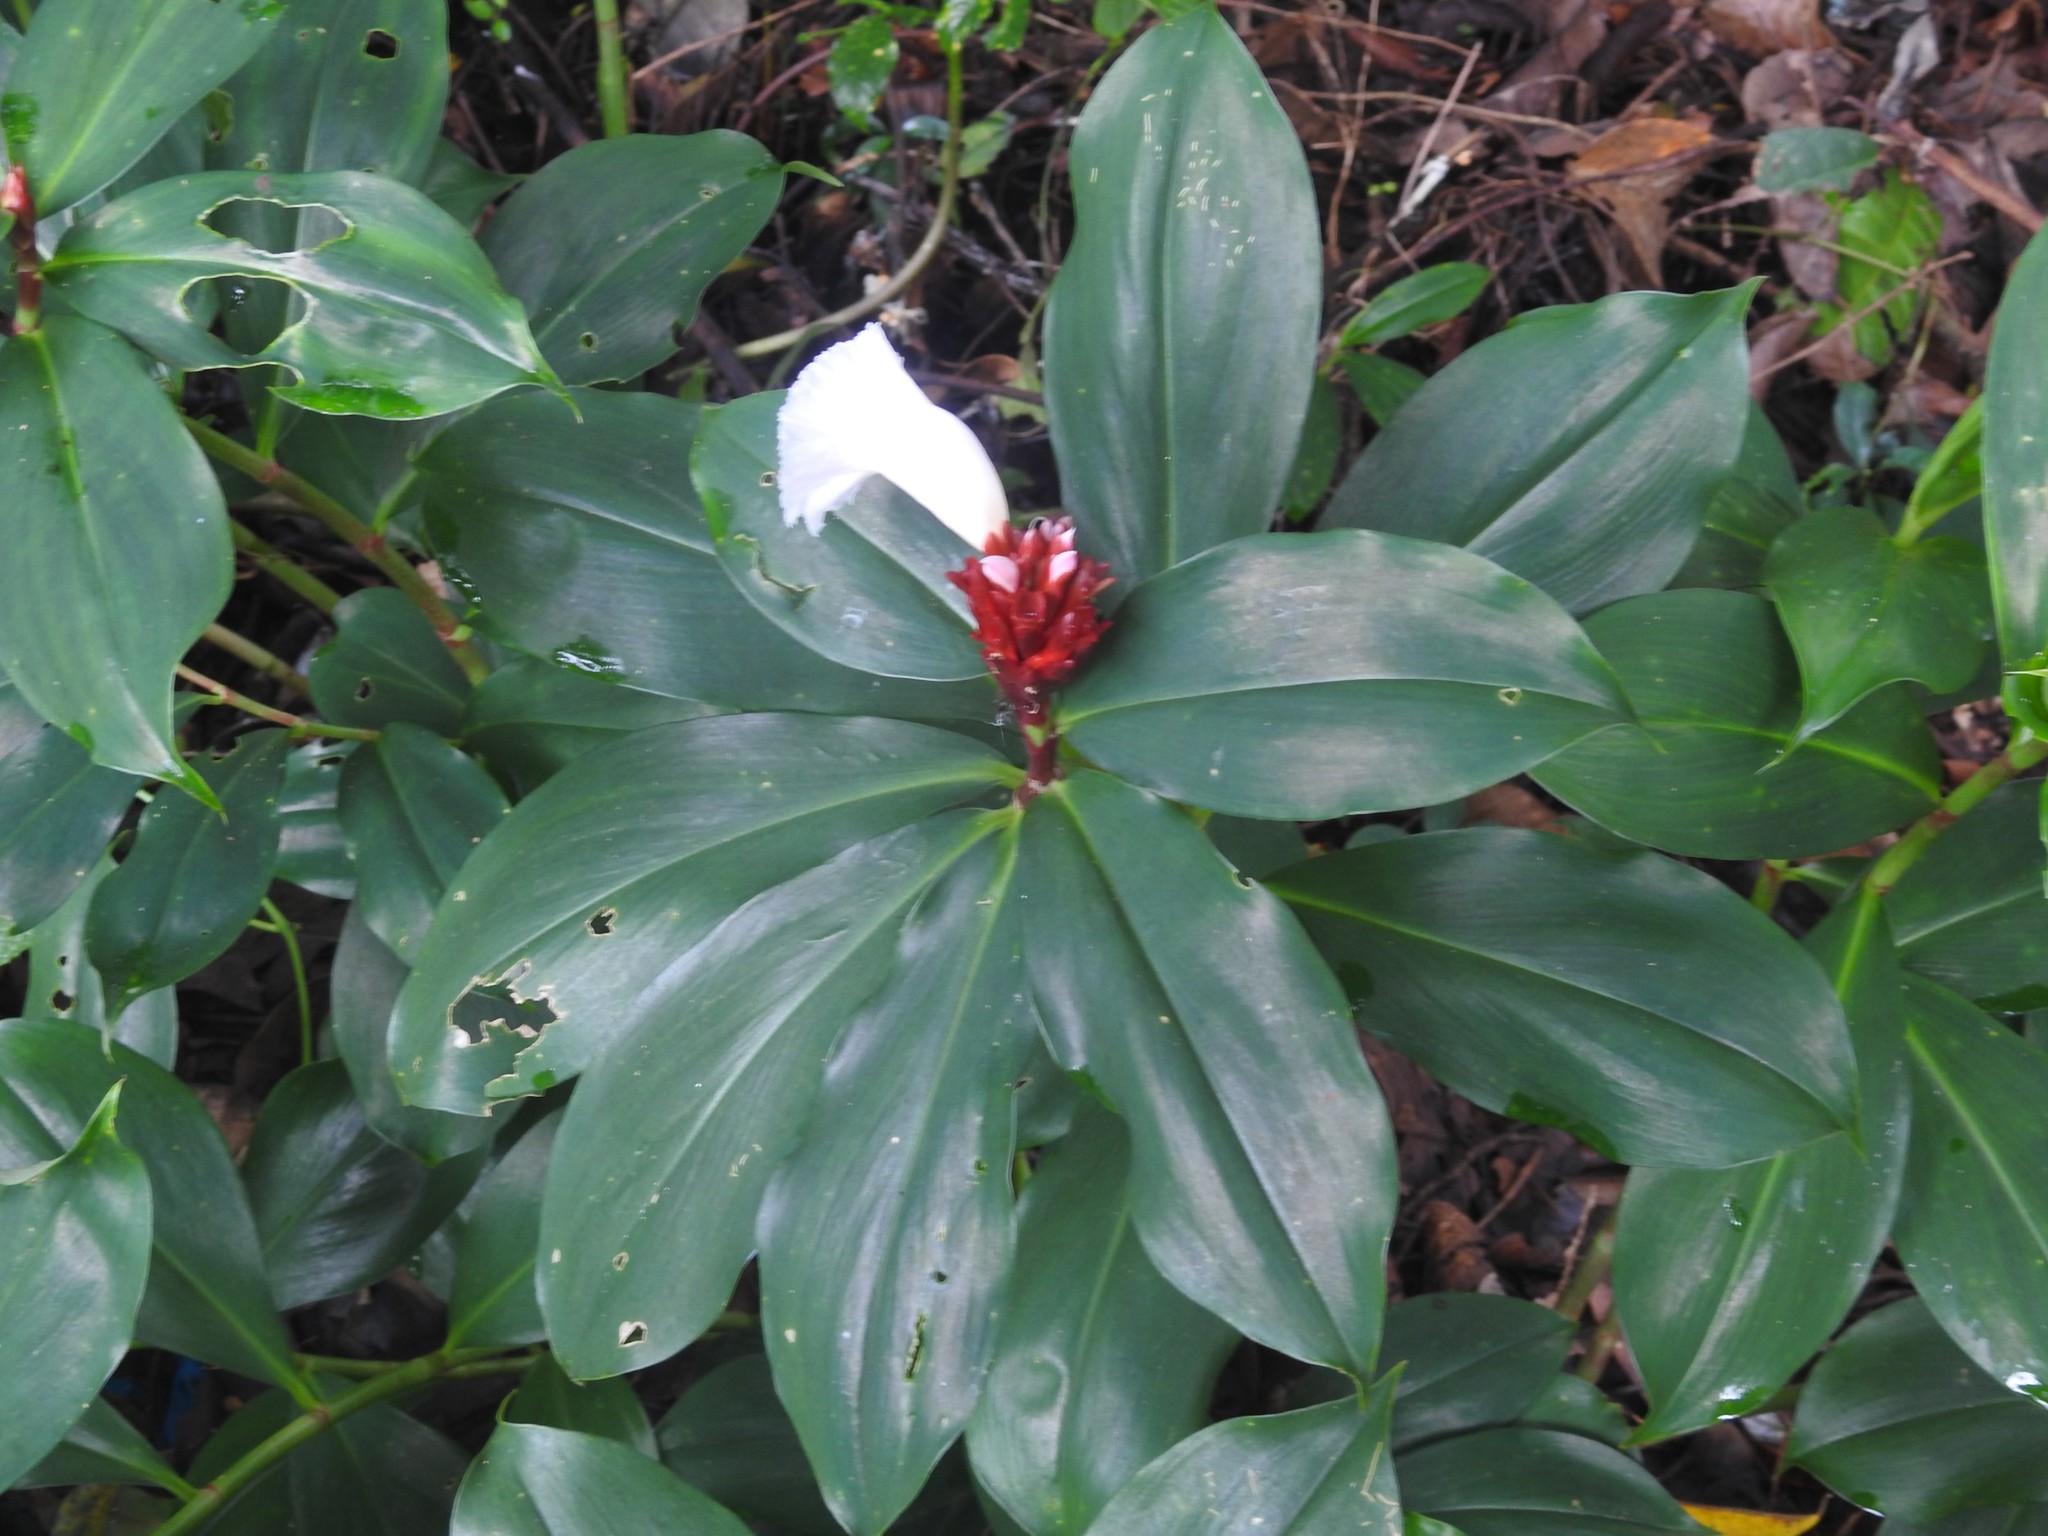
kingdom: Plantae
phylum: Tracheophyta
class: Liliopsida
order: Zingiberales
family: Costaceae
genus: Hellenia
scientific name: Hellenia speciosa
